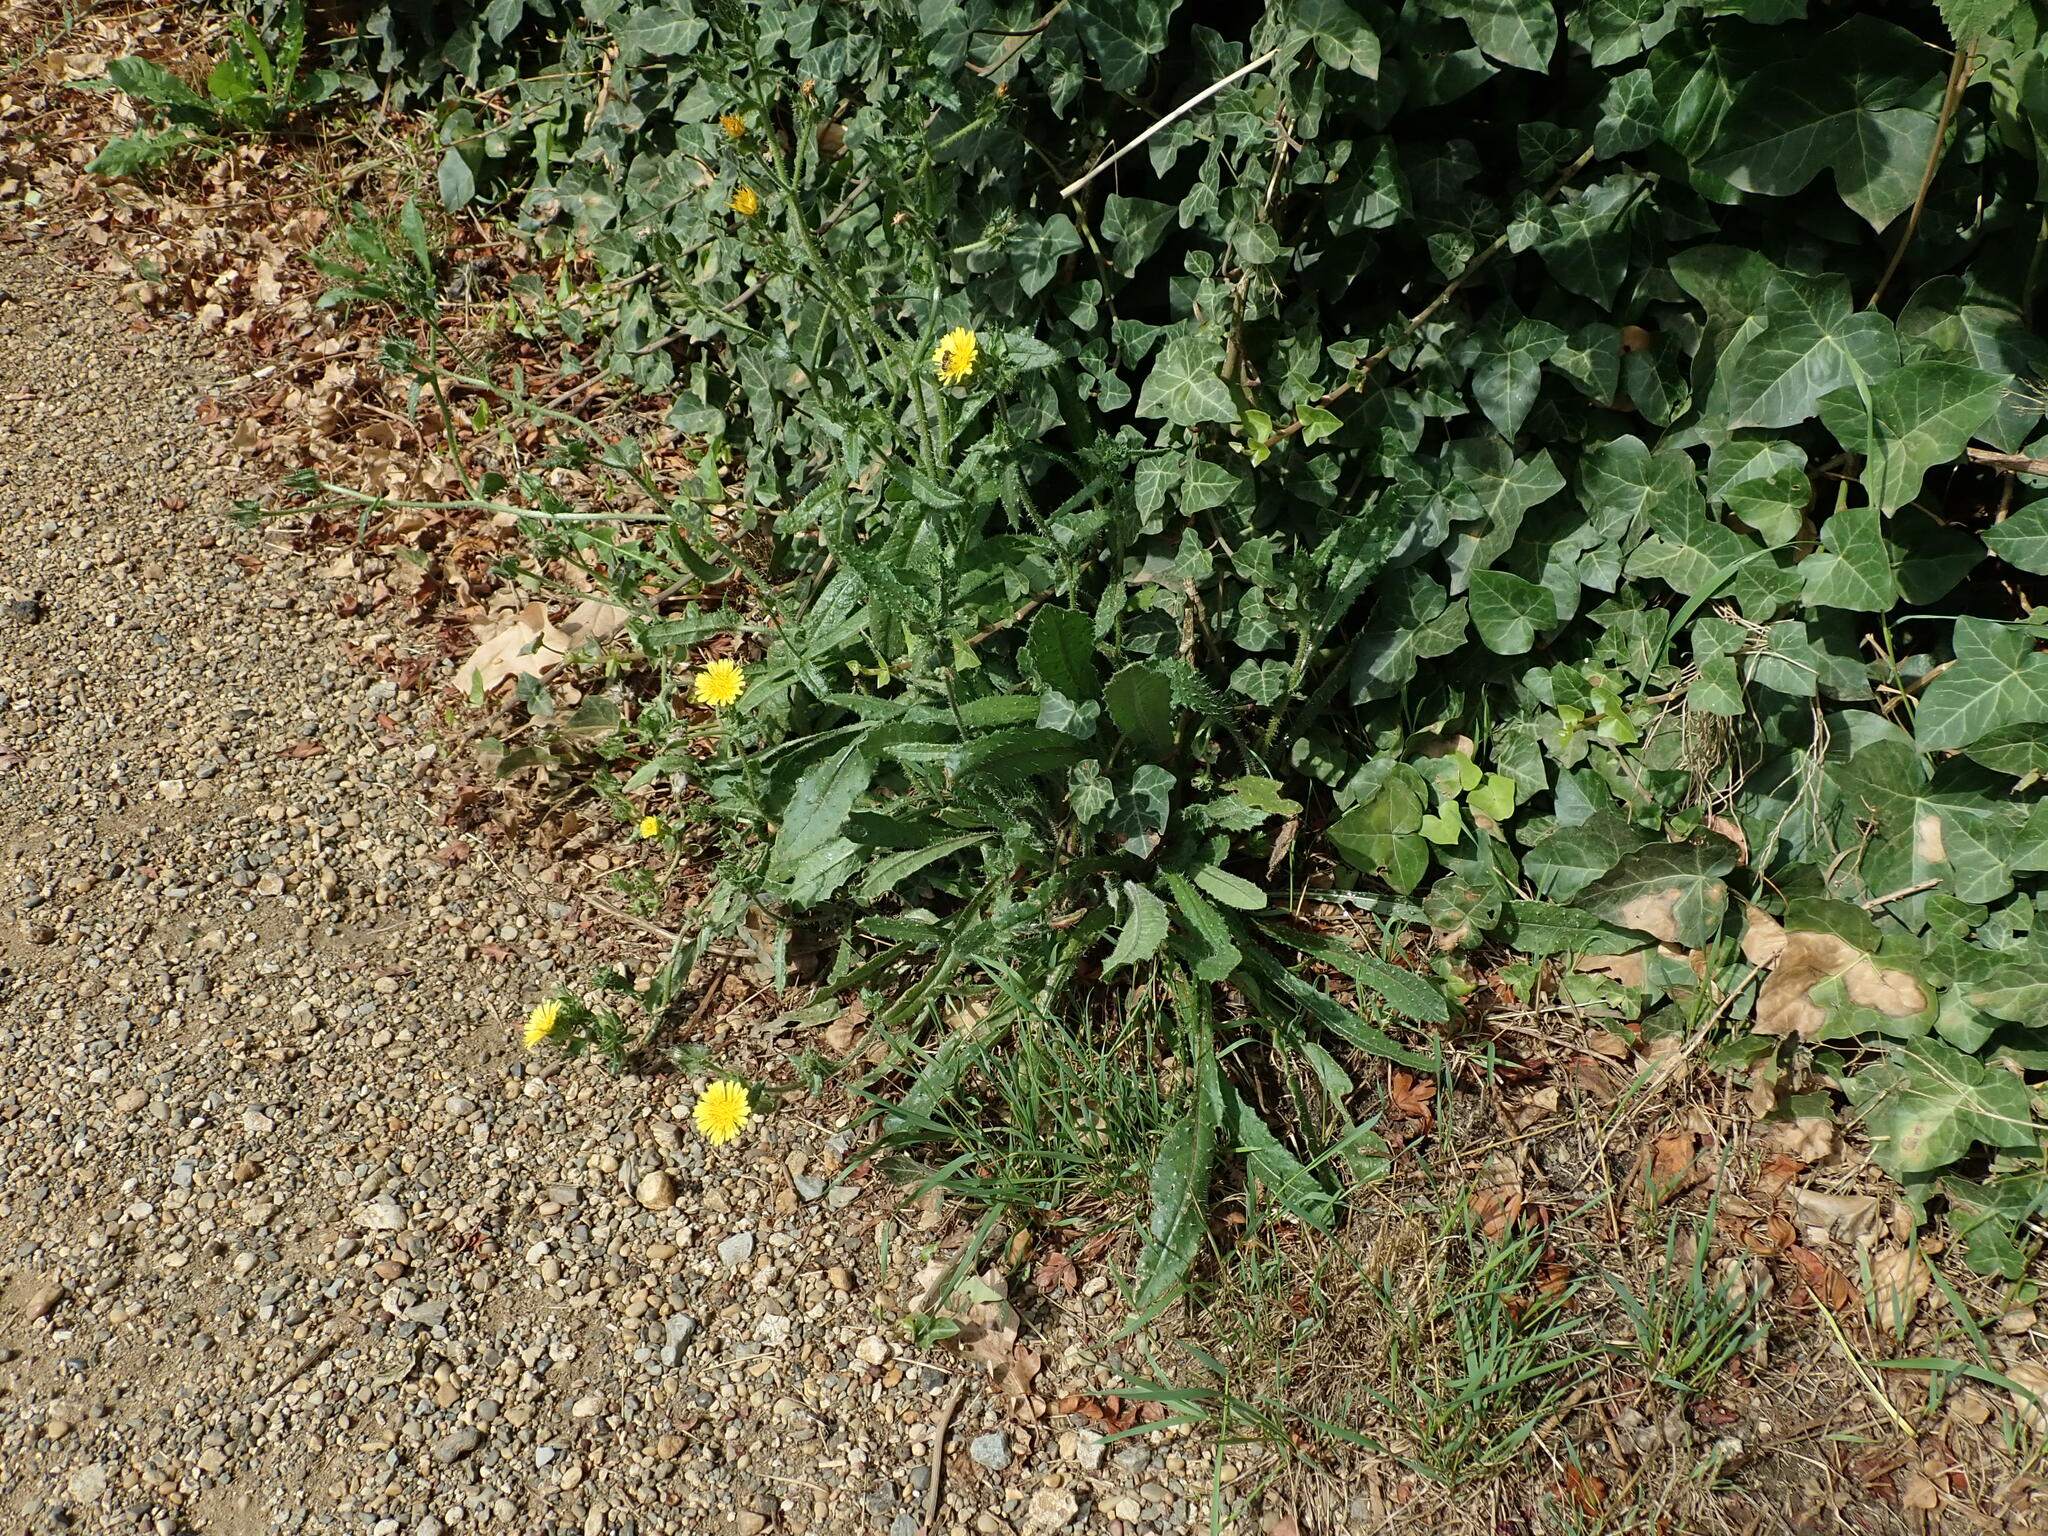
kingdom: Plantae
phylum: Tracheophyta
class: Magnoliopsida
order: Asterales
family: Asteraceae
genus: Helminthotheca
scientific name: Helminthotheca echioides
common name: Ox-tongue
